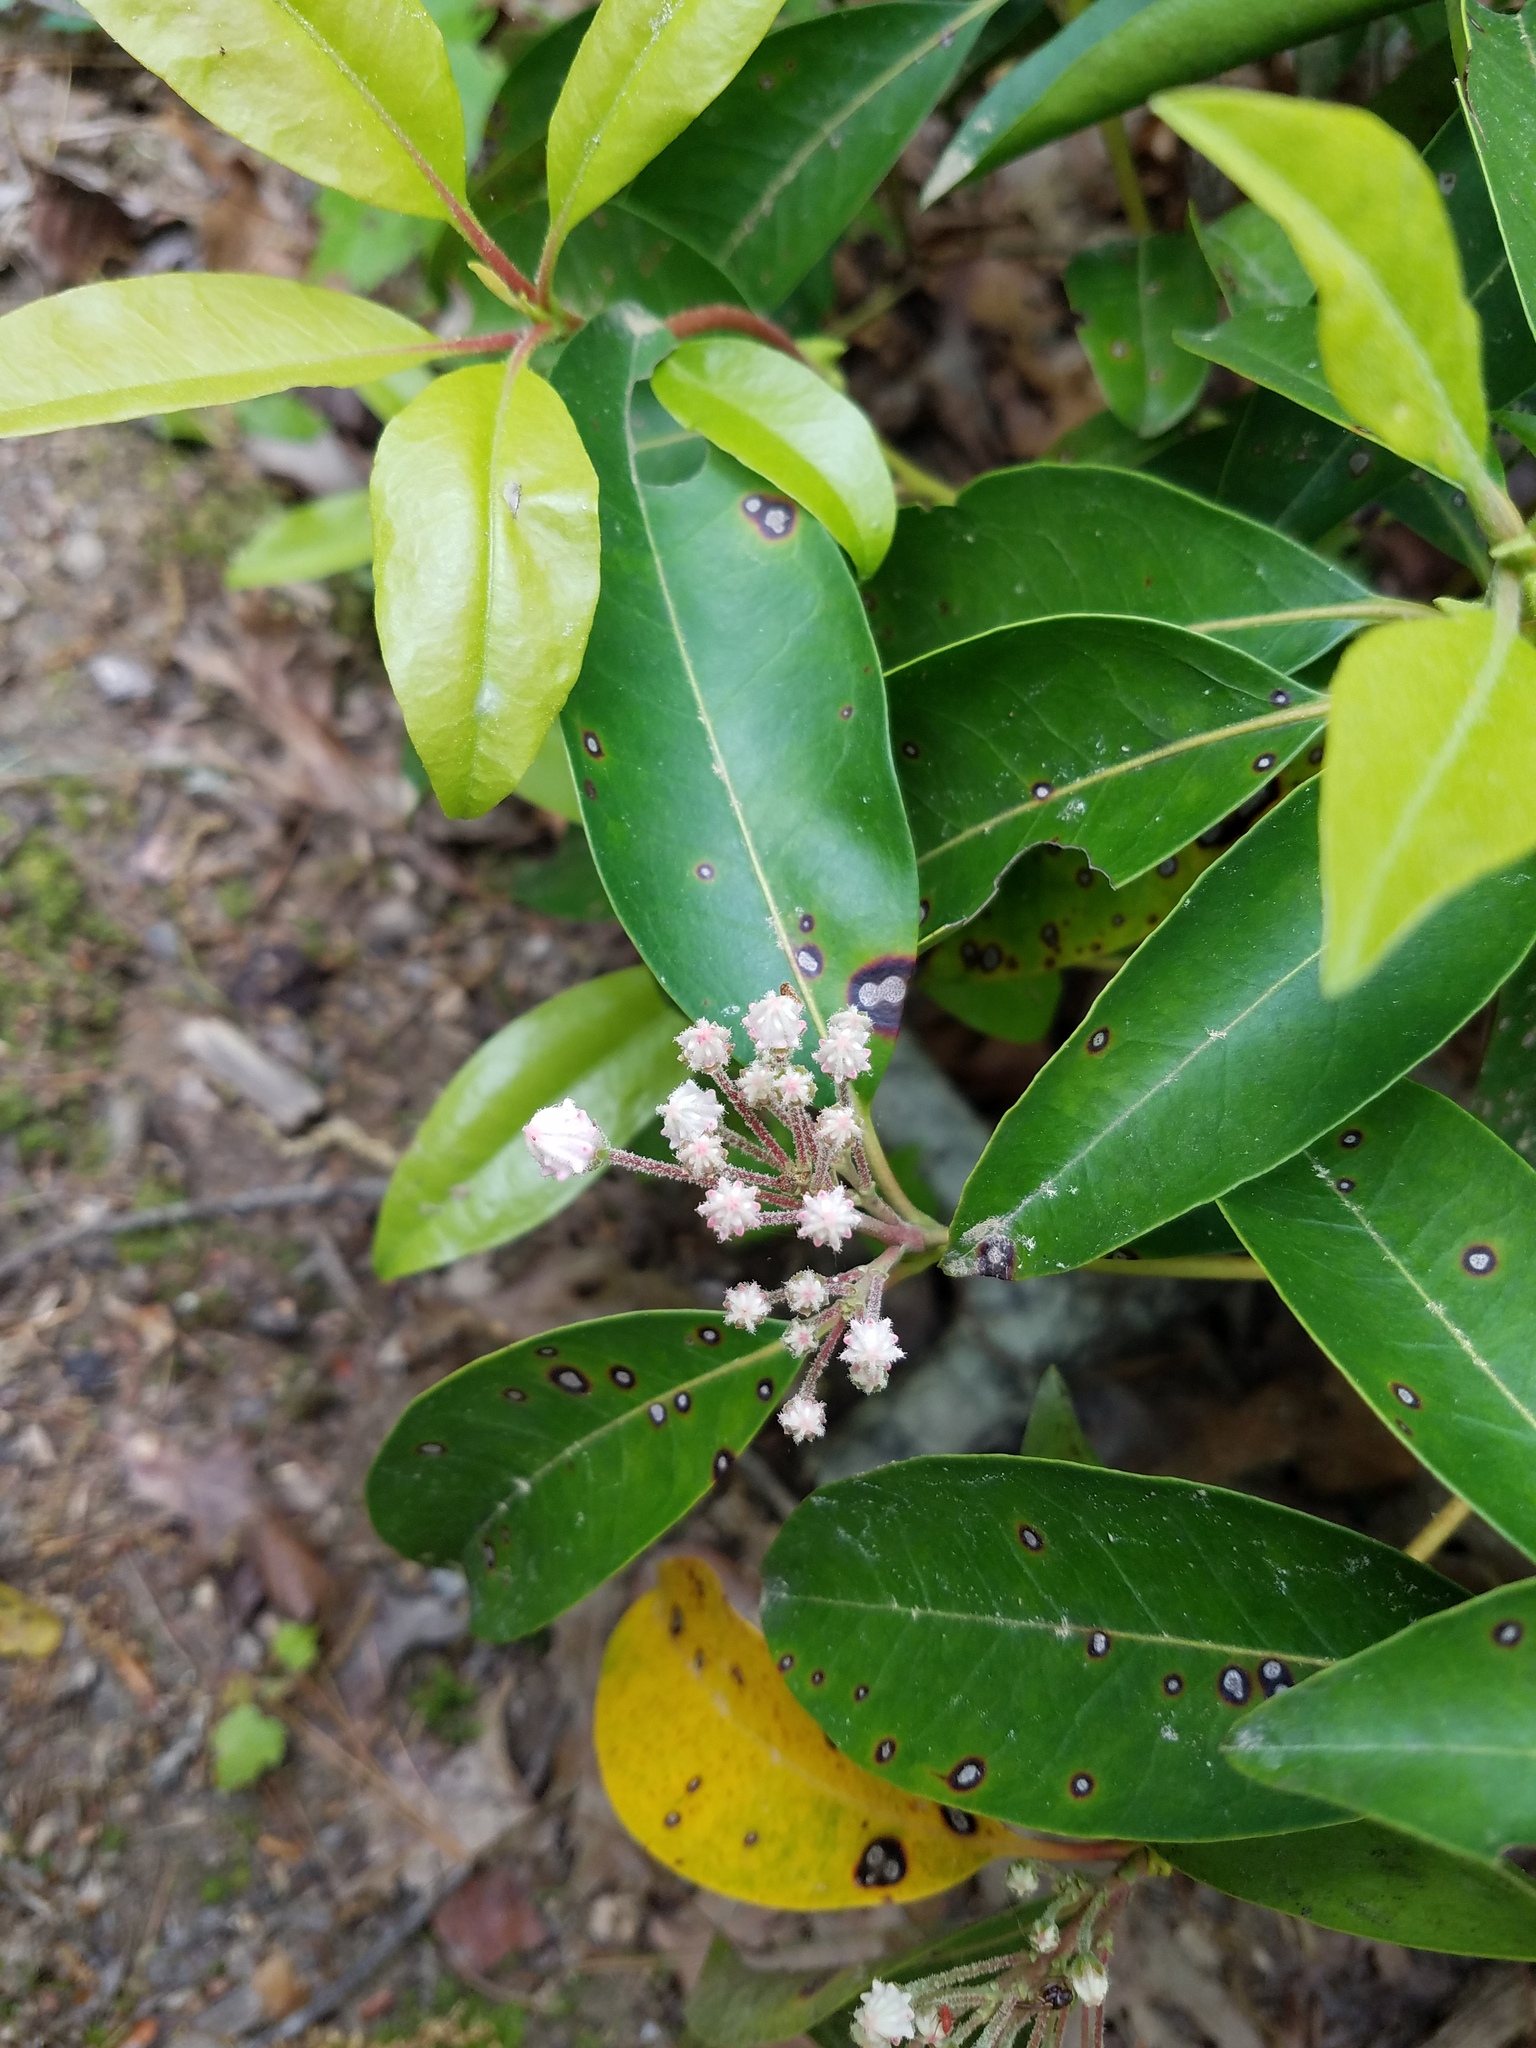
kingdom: Plantae
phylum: Tracheophyta
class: Magnoliopsida
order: Ericales
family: Ericaceae
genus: Kalmia
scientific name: Kalmia latifolia
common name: Mountain-laurel
